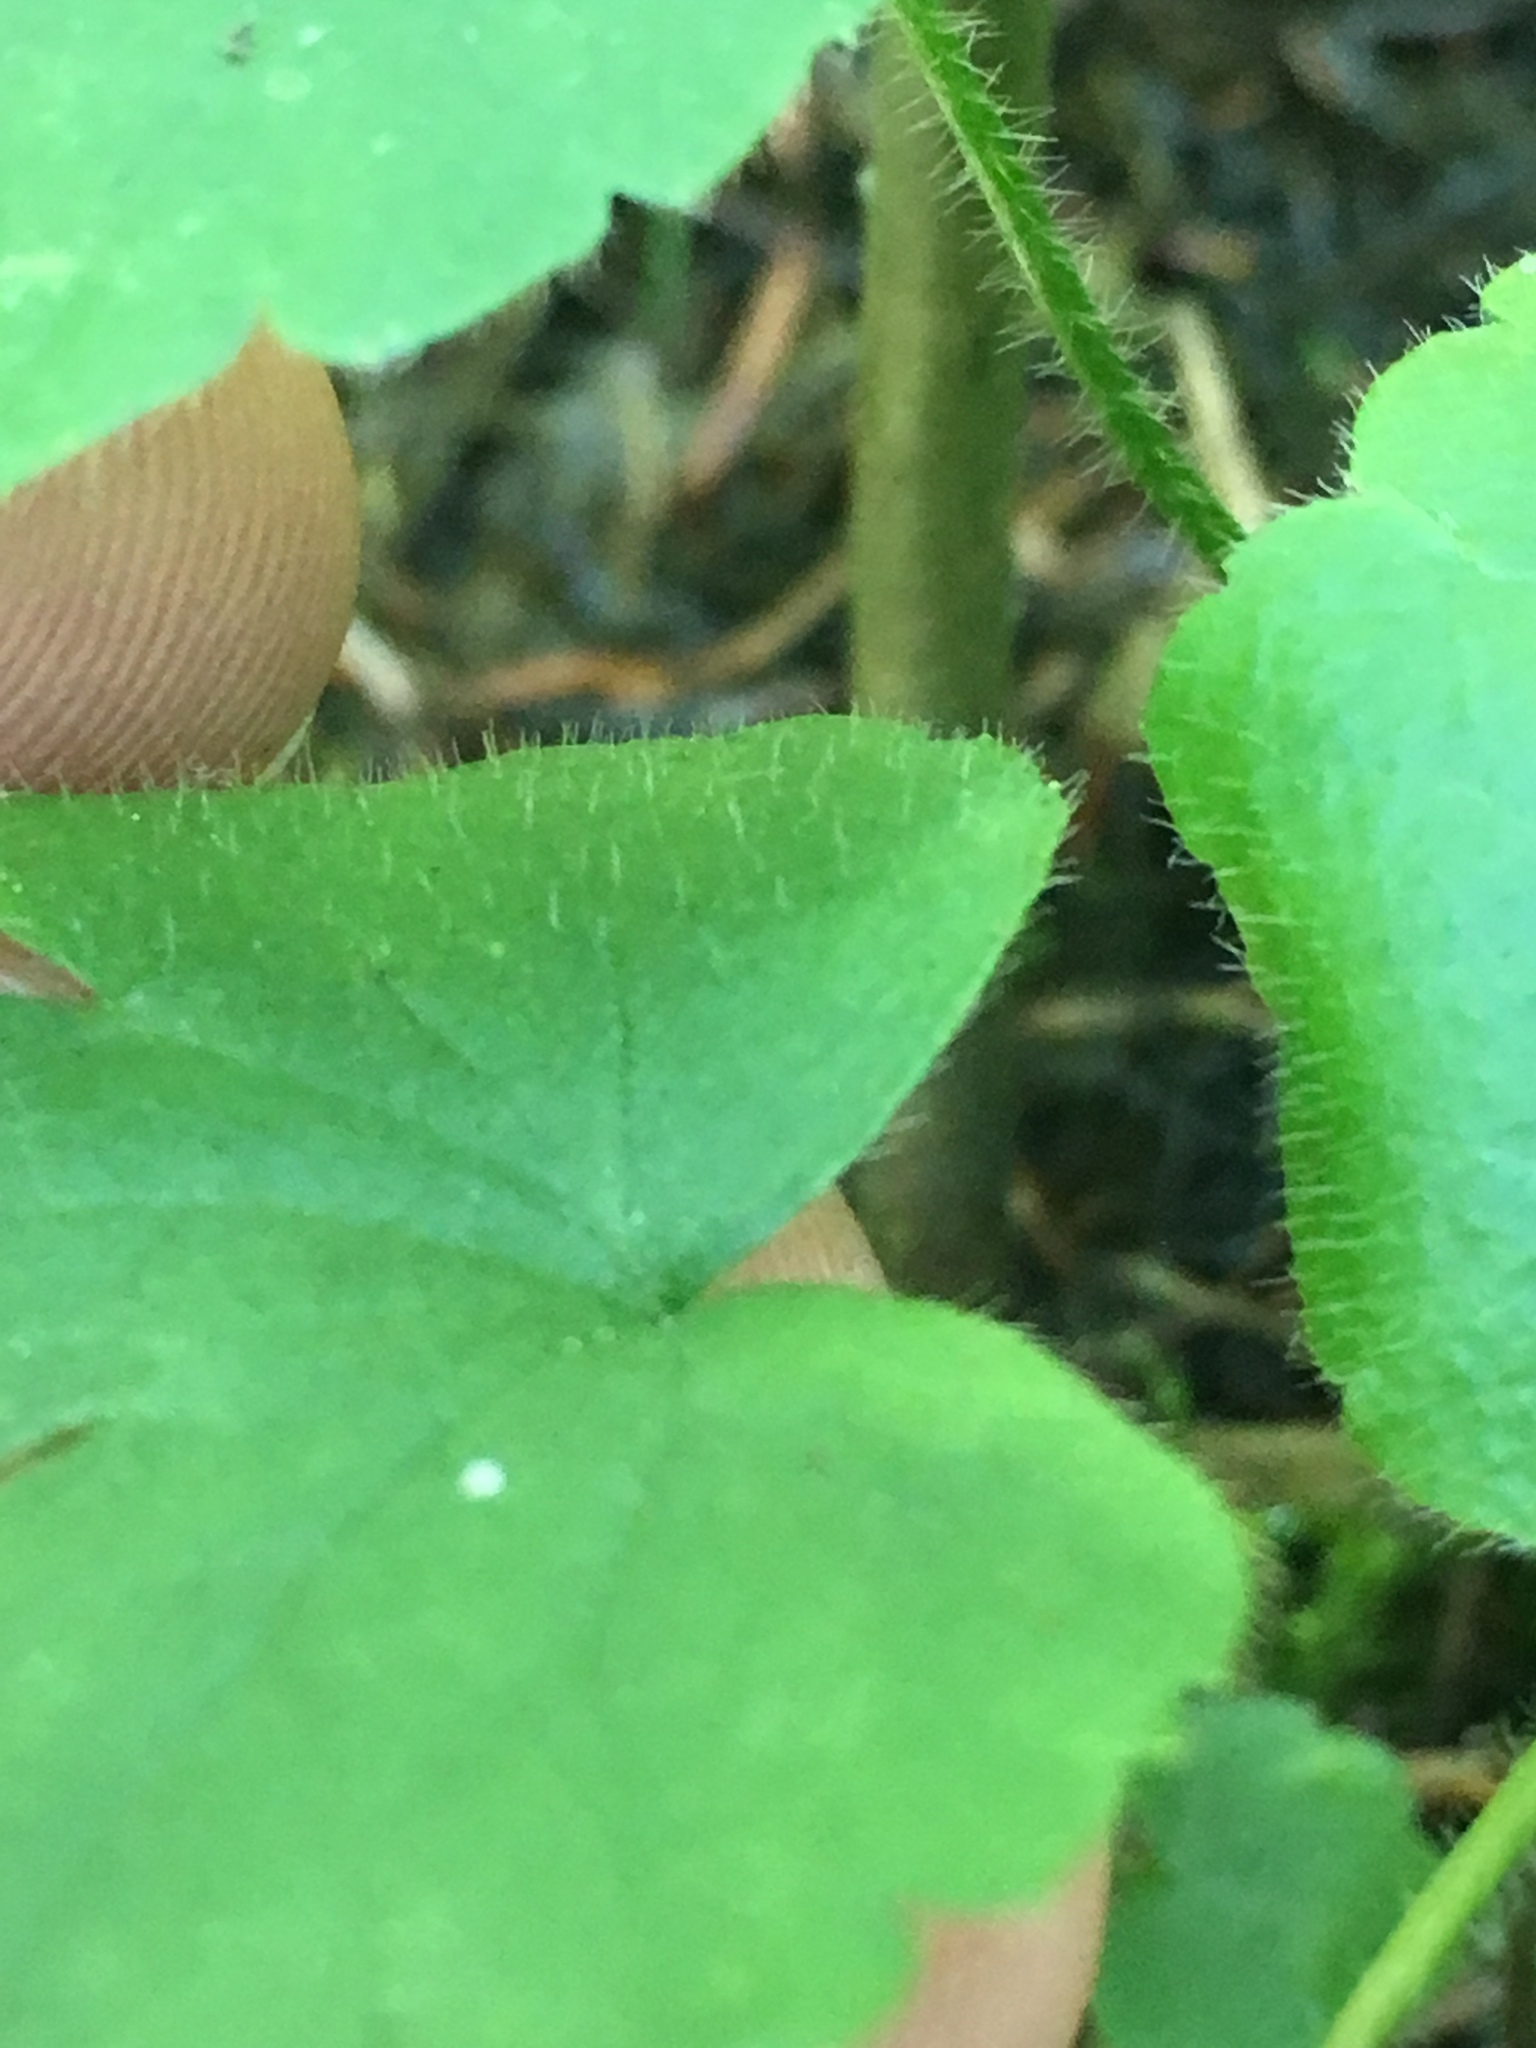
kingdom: Plantae
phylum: Tracheophyta
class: Magnoliopsida
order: Ranunculales
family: Ranunculaceae
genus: Ranunculus
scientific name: Ranunculus recurvatus
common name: Blisterwort
